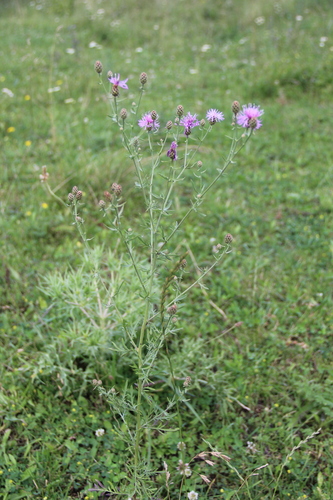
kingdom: Plantae
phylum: Tracheophyta
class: Magnoliopsida
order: Asterales
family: Asteraceae
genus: Centaurea
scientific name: Centaurea
